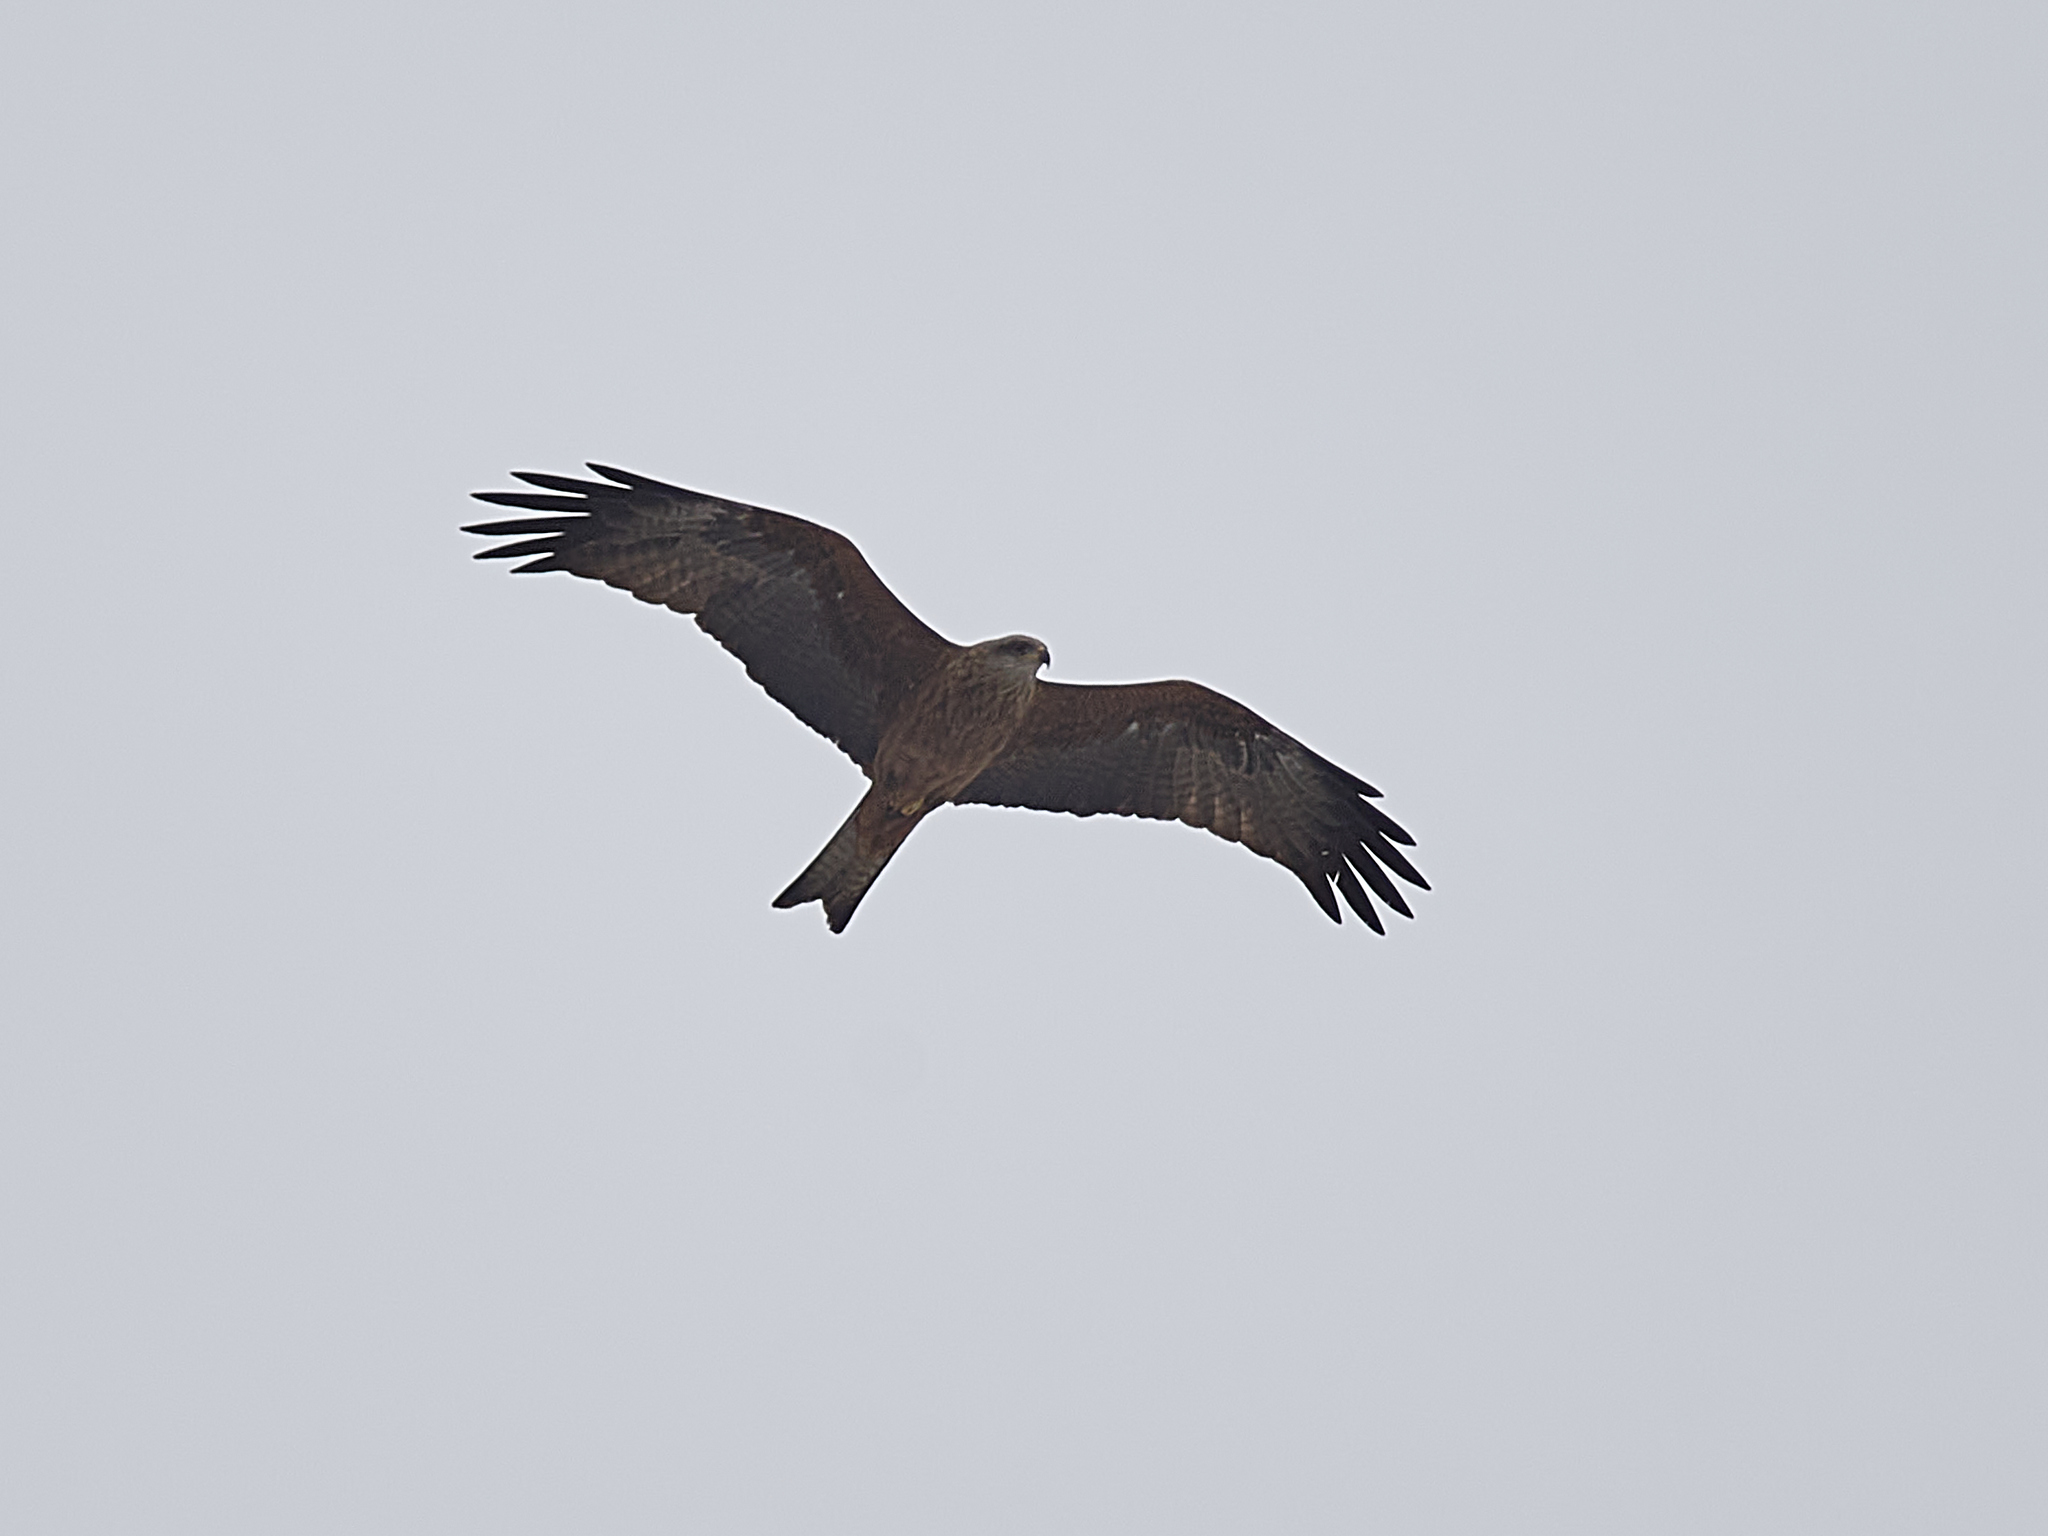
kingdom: Animalia
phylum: Chordata
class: Aves
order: Accipitriformes
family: Accipitridae
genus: Milvus
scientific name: Milvus migrans
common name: Black kite
